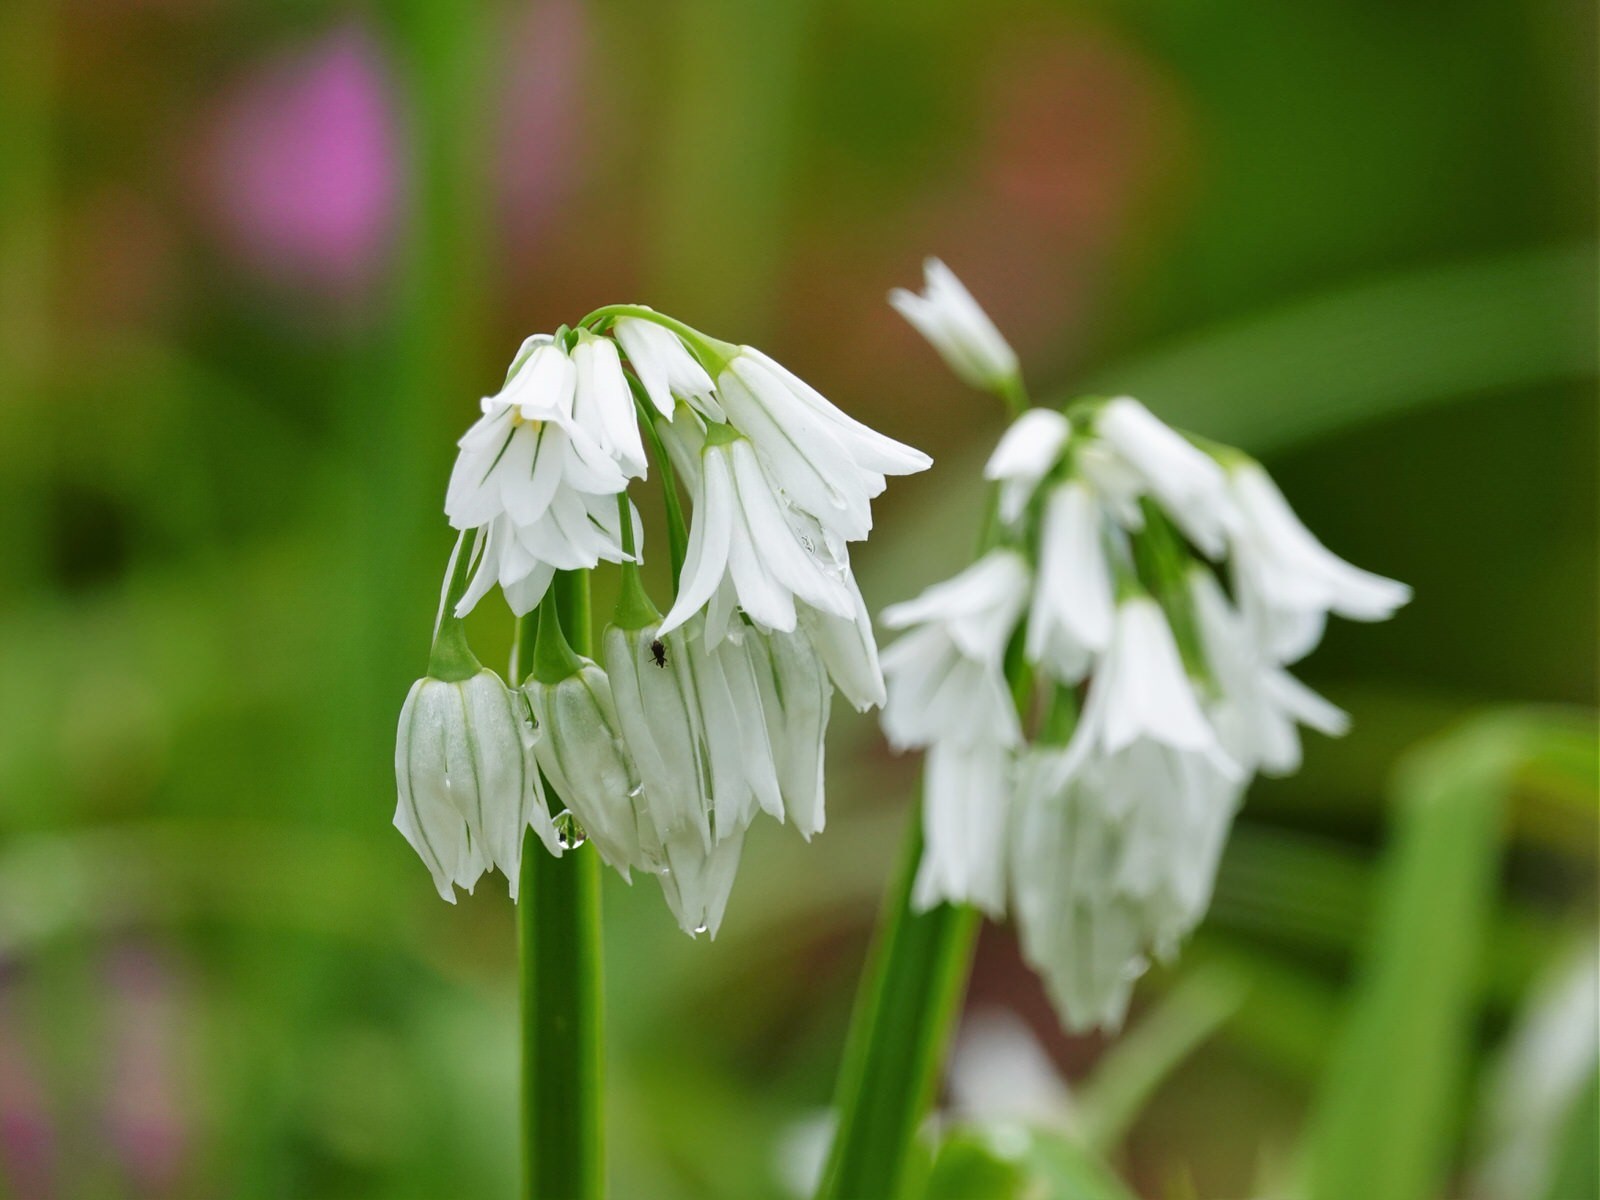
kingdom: Plantae
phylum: Tracheophyta
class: Liliopsida
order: Asparagales
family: Amaryllidaceae
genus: Allium
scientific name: Allium triquetrum
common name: Three-cornered garlic
